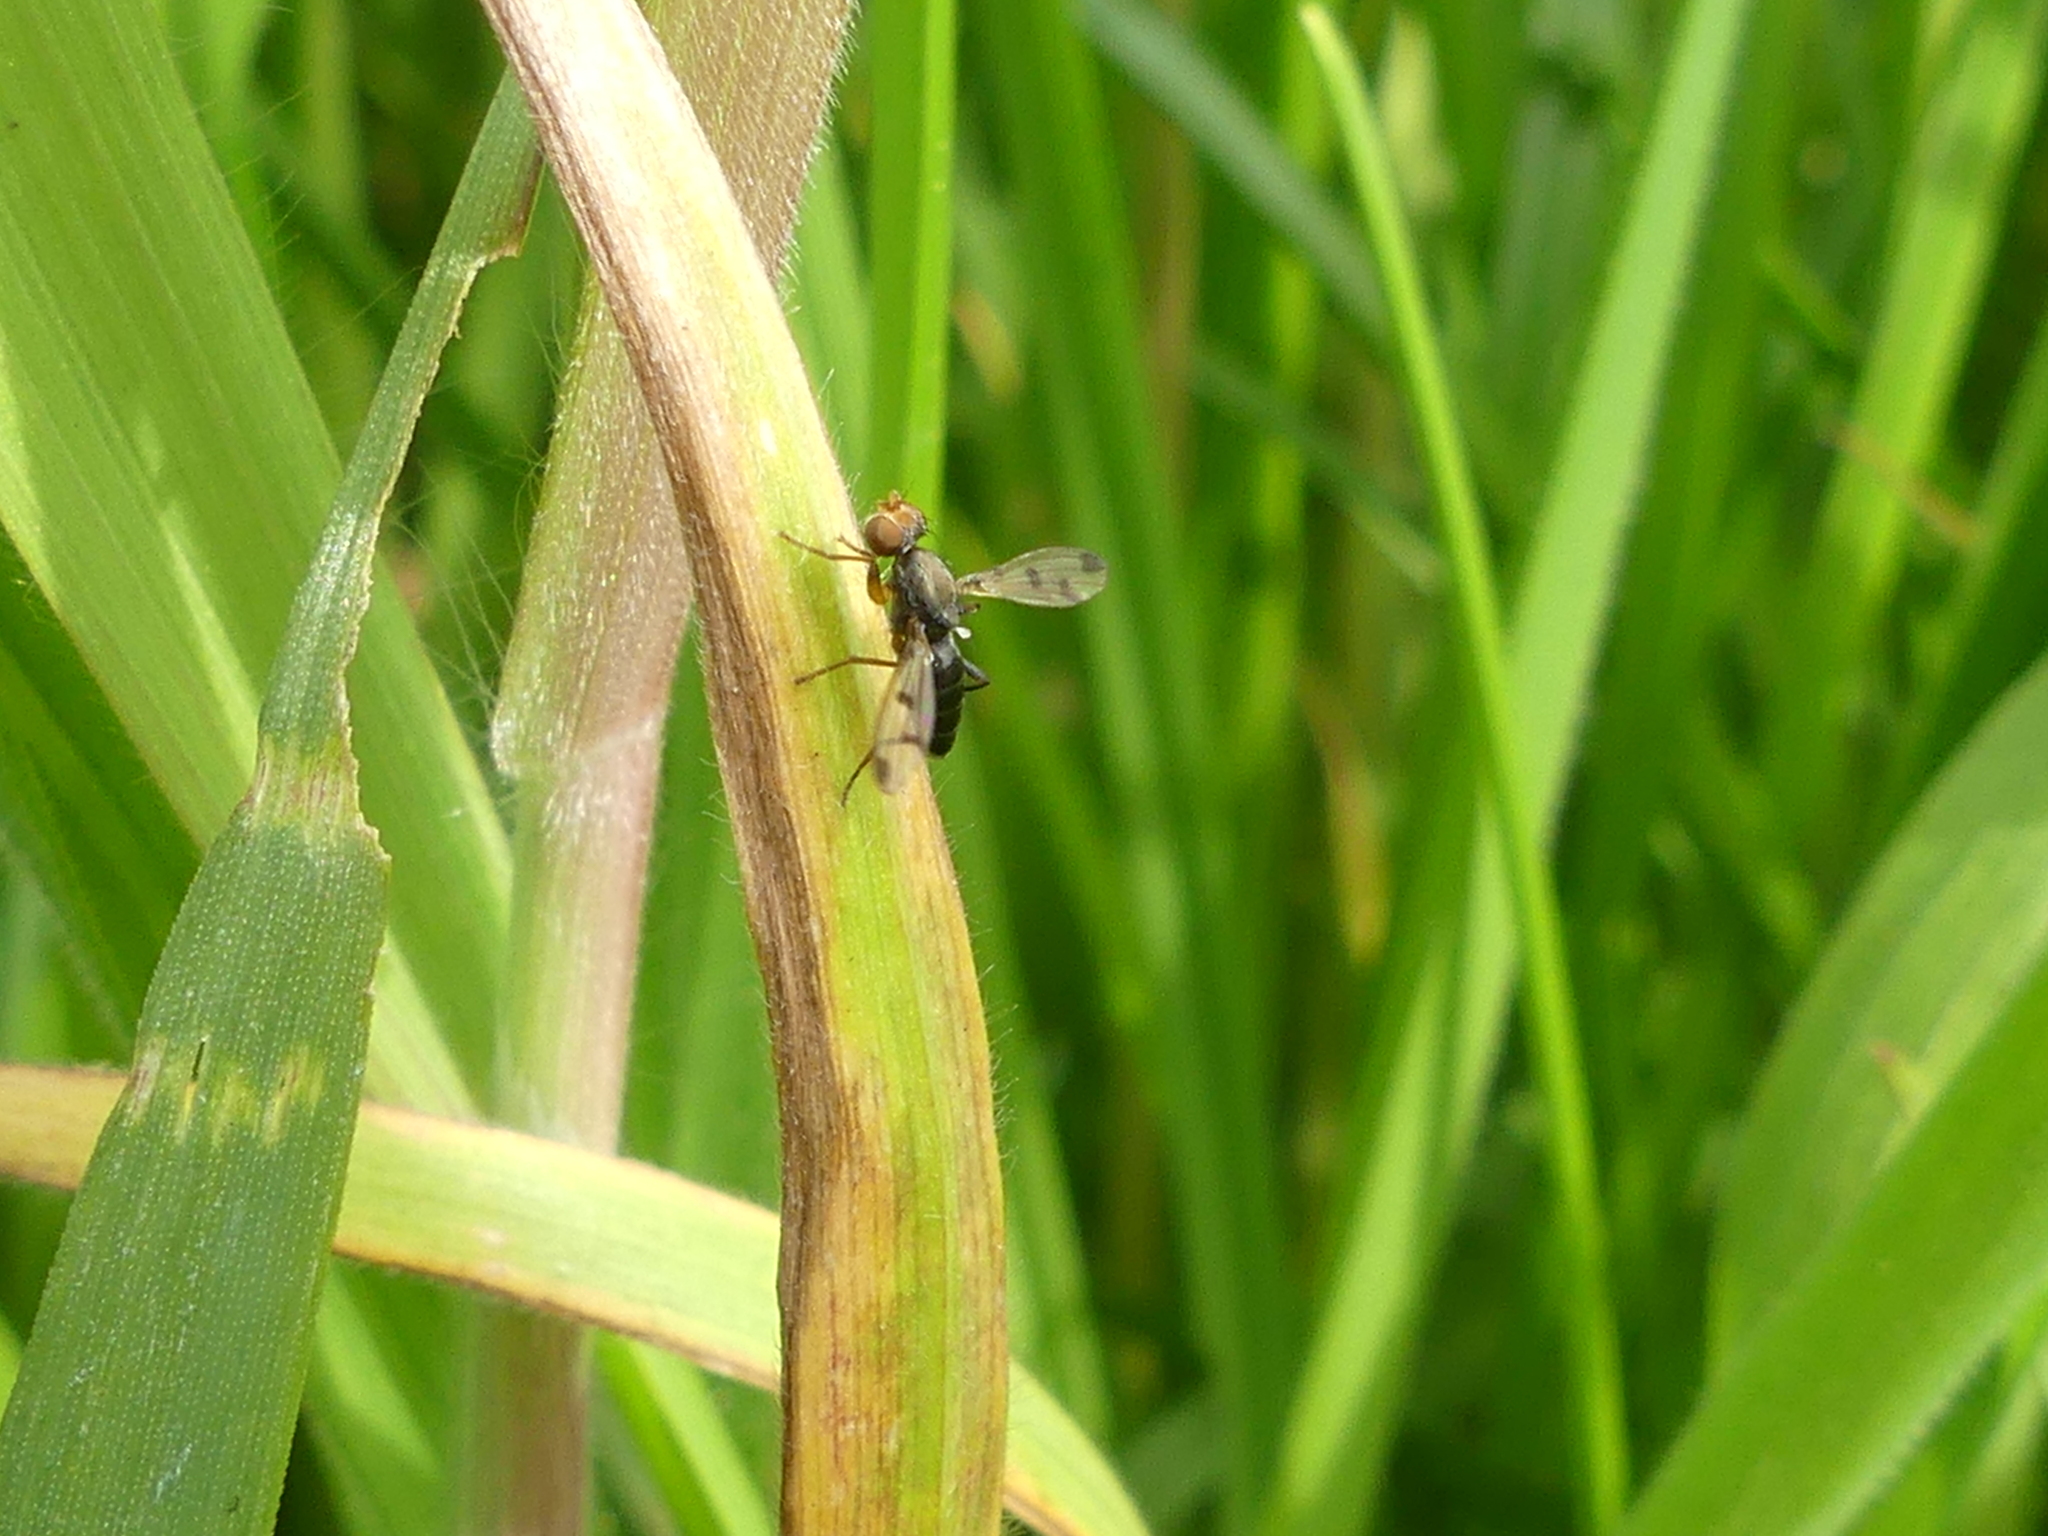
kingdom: Animalia
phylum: Arthropoda
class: Insecta
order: Diptera
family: Opomyzidae
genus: Geomyza
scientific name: Geomyza
